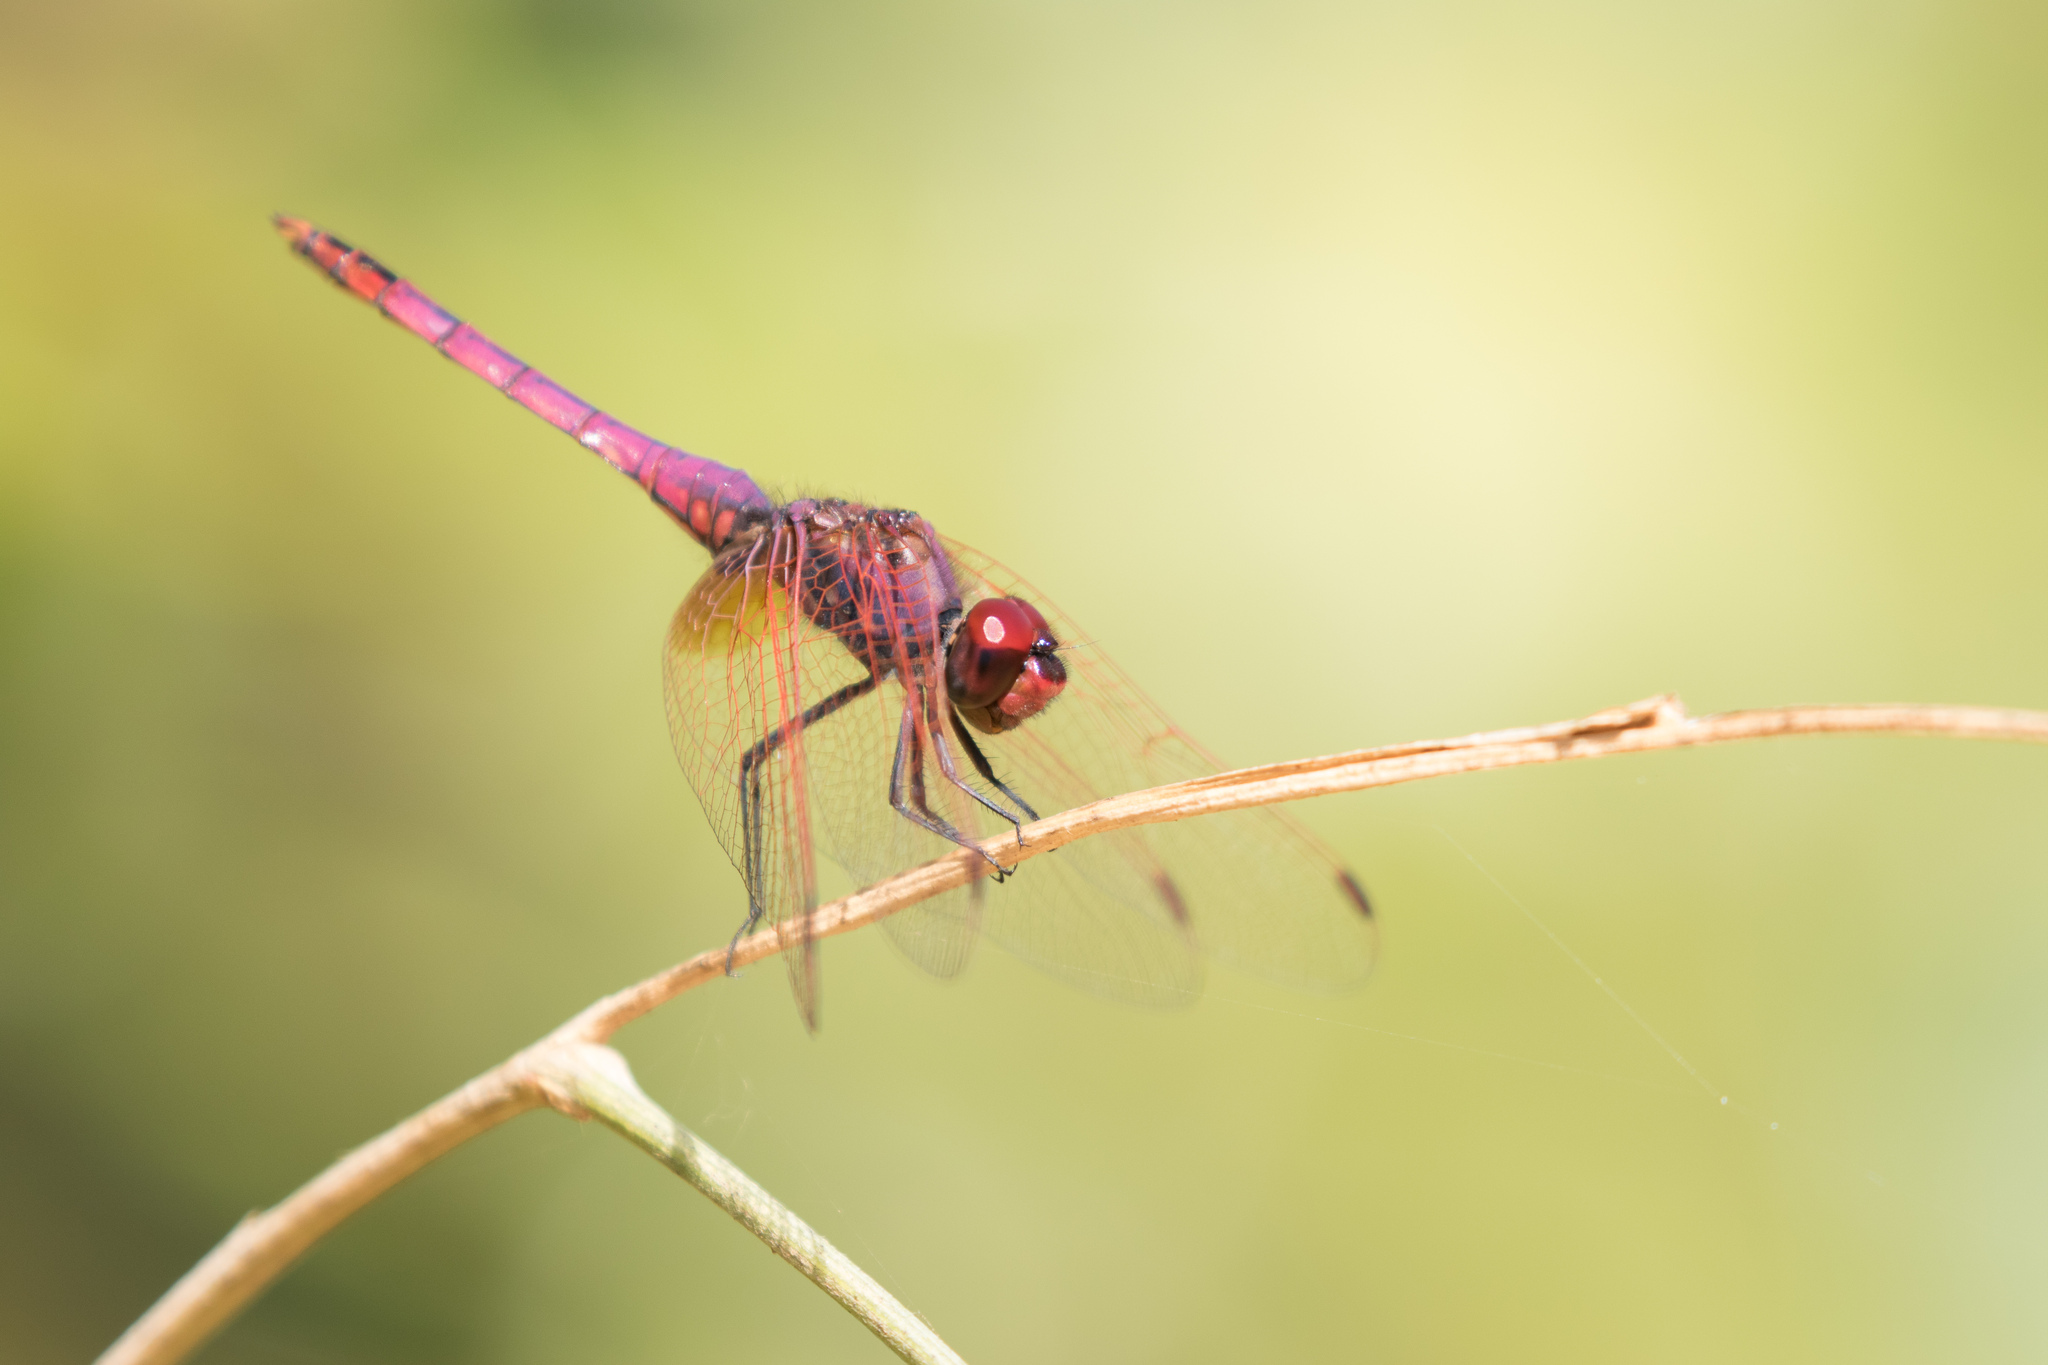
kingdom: Animalia
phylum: Arthropoda
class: Insecta
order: Odonata
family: Libellulidae
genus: Trithemis
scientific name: Trithemis annulata
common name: Violet dropwing
